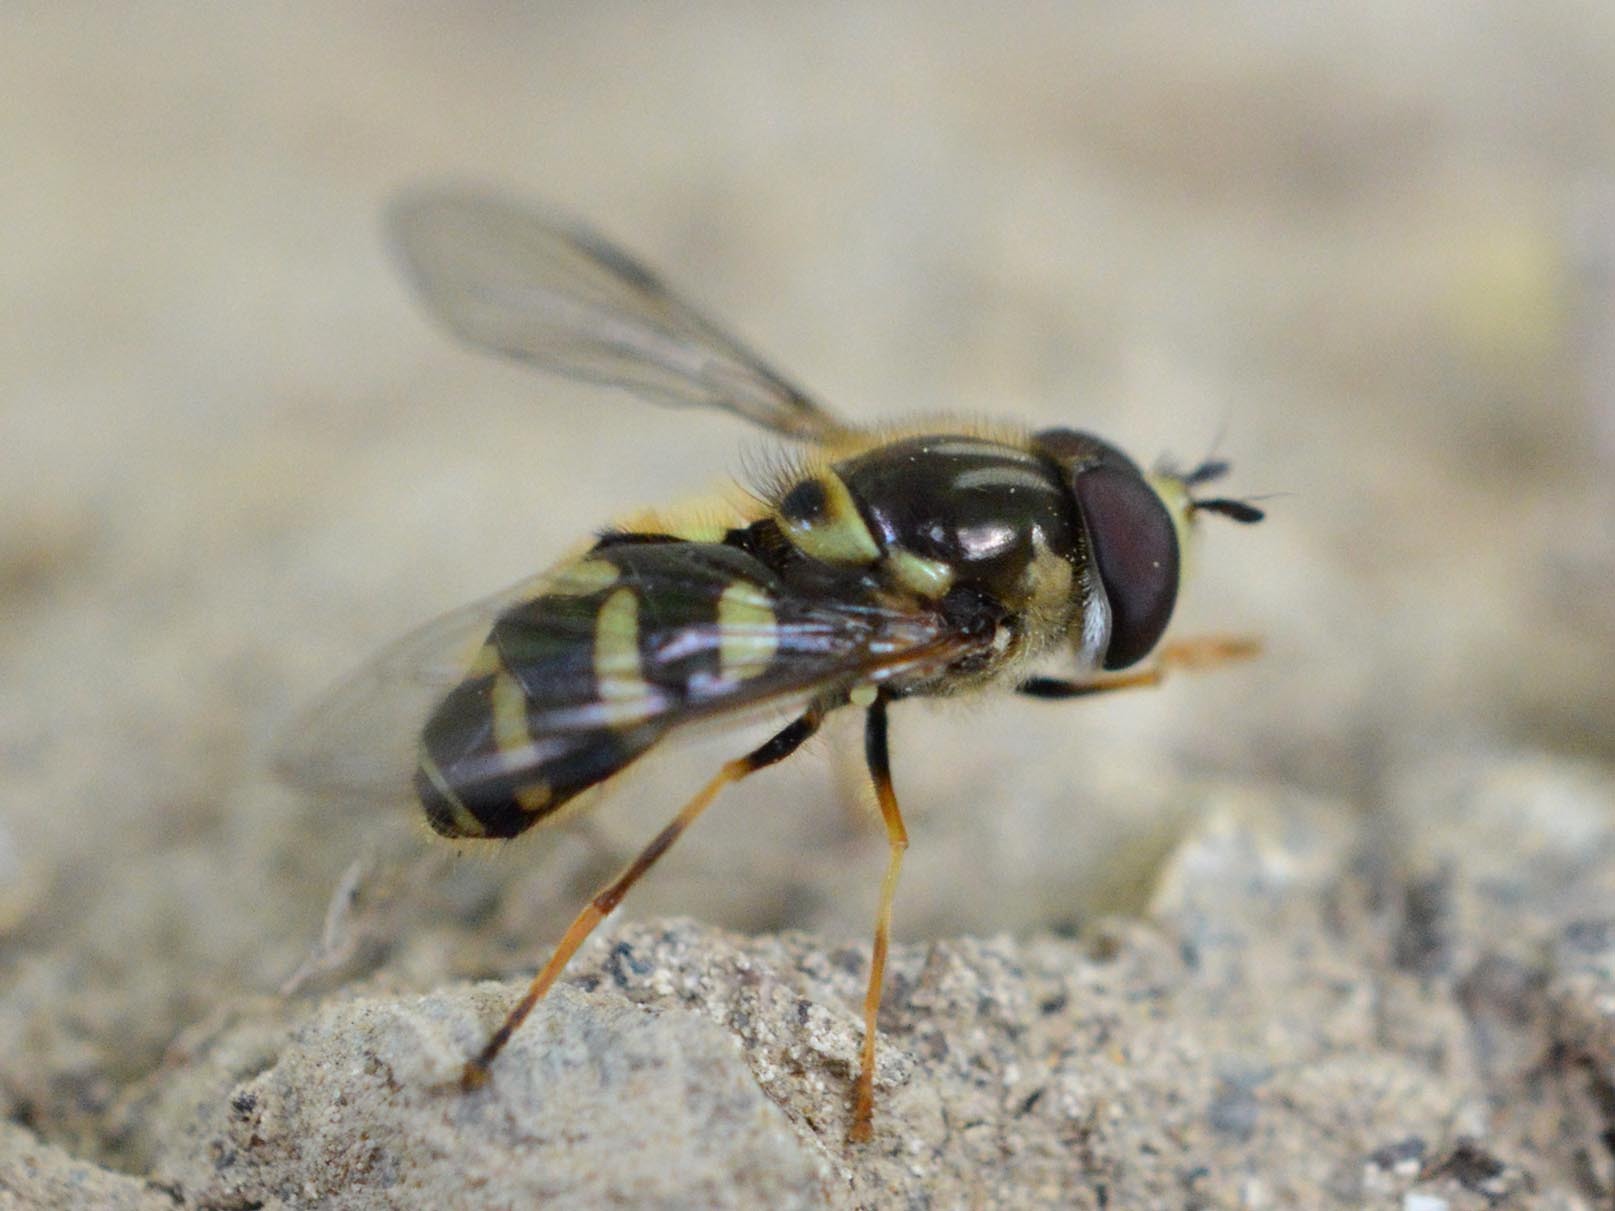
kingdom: Animalia
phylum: Arthropoda
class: Insecta
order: Diptera
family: Syrphidae
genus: Dasysyrphus
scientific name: Dasysyrphus albostriatus
